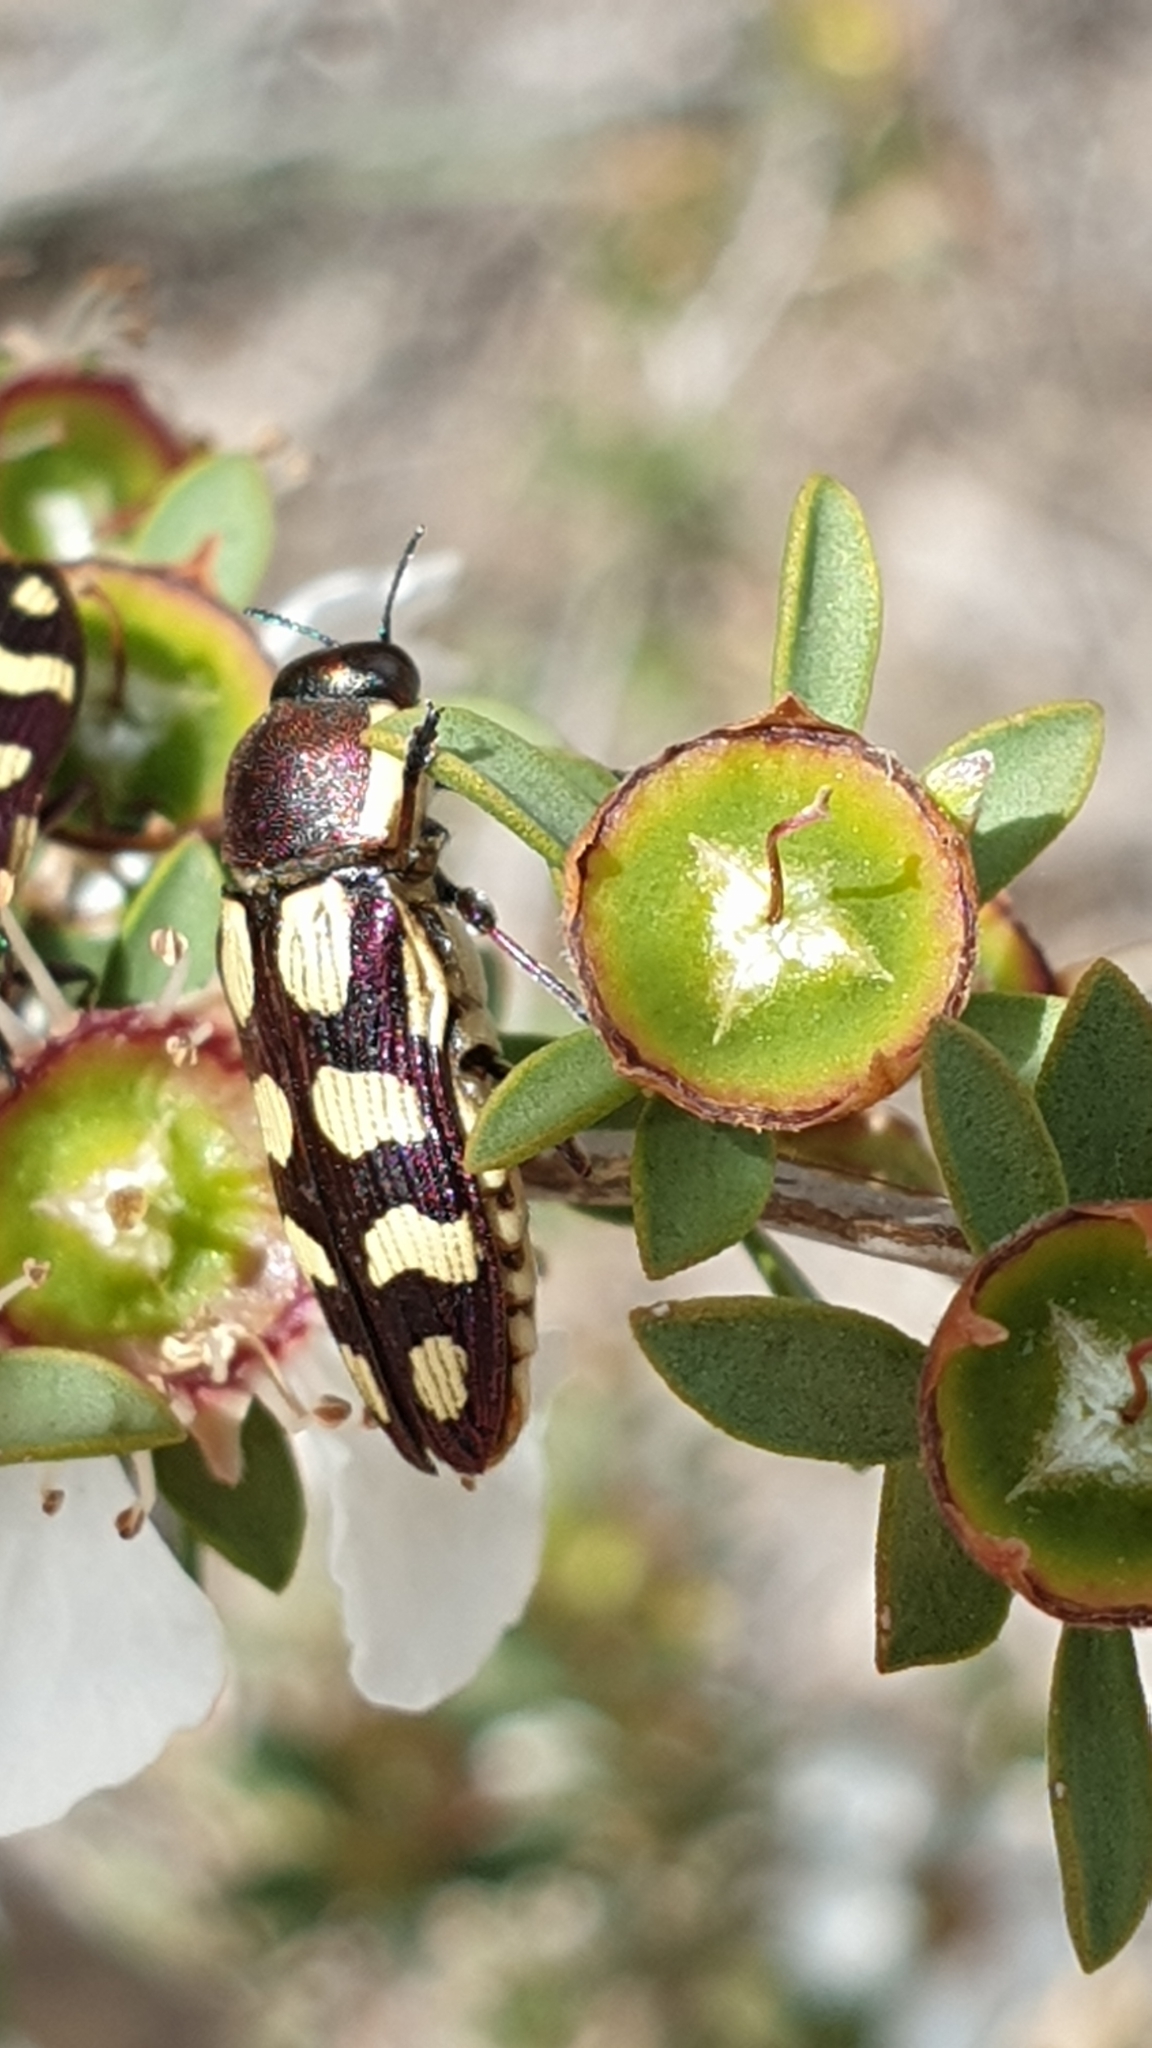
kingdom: Animalia
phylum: Arthropoda
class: Insecta
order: Coleoptera
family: Buprestidae
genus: Castiarina
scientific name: Castiarina decemmaculata
